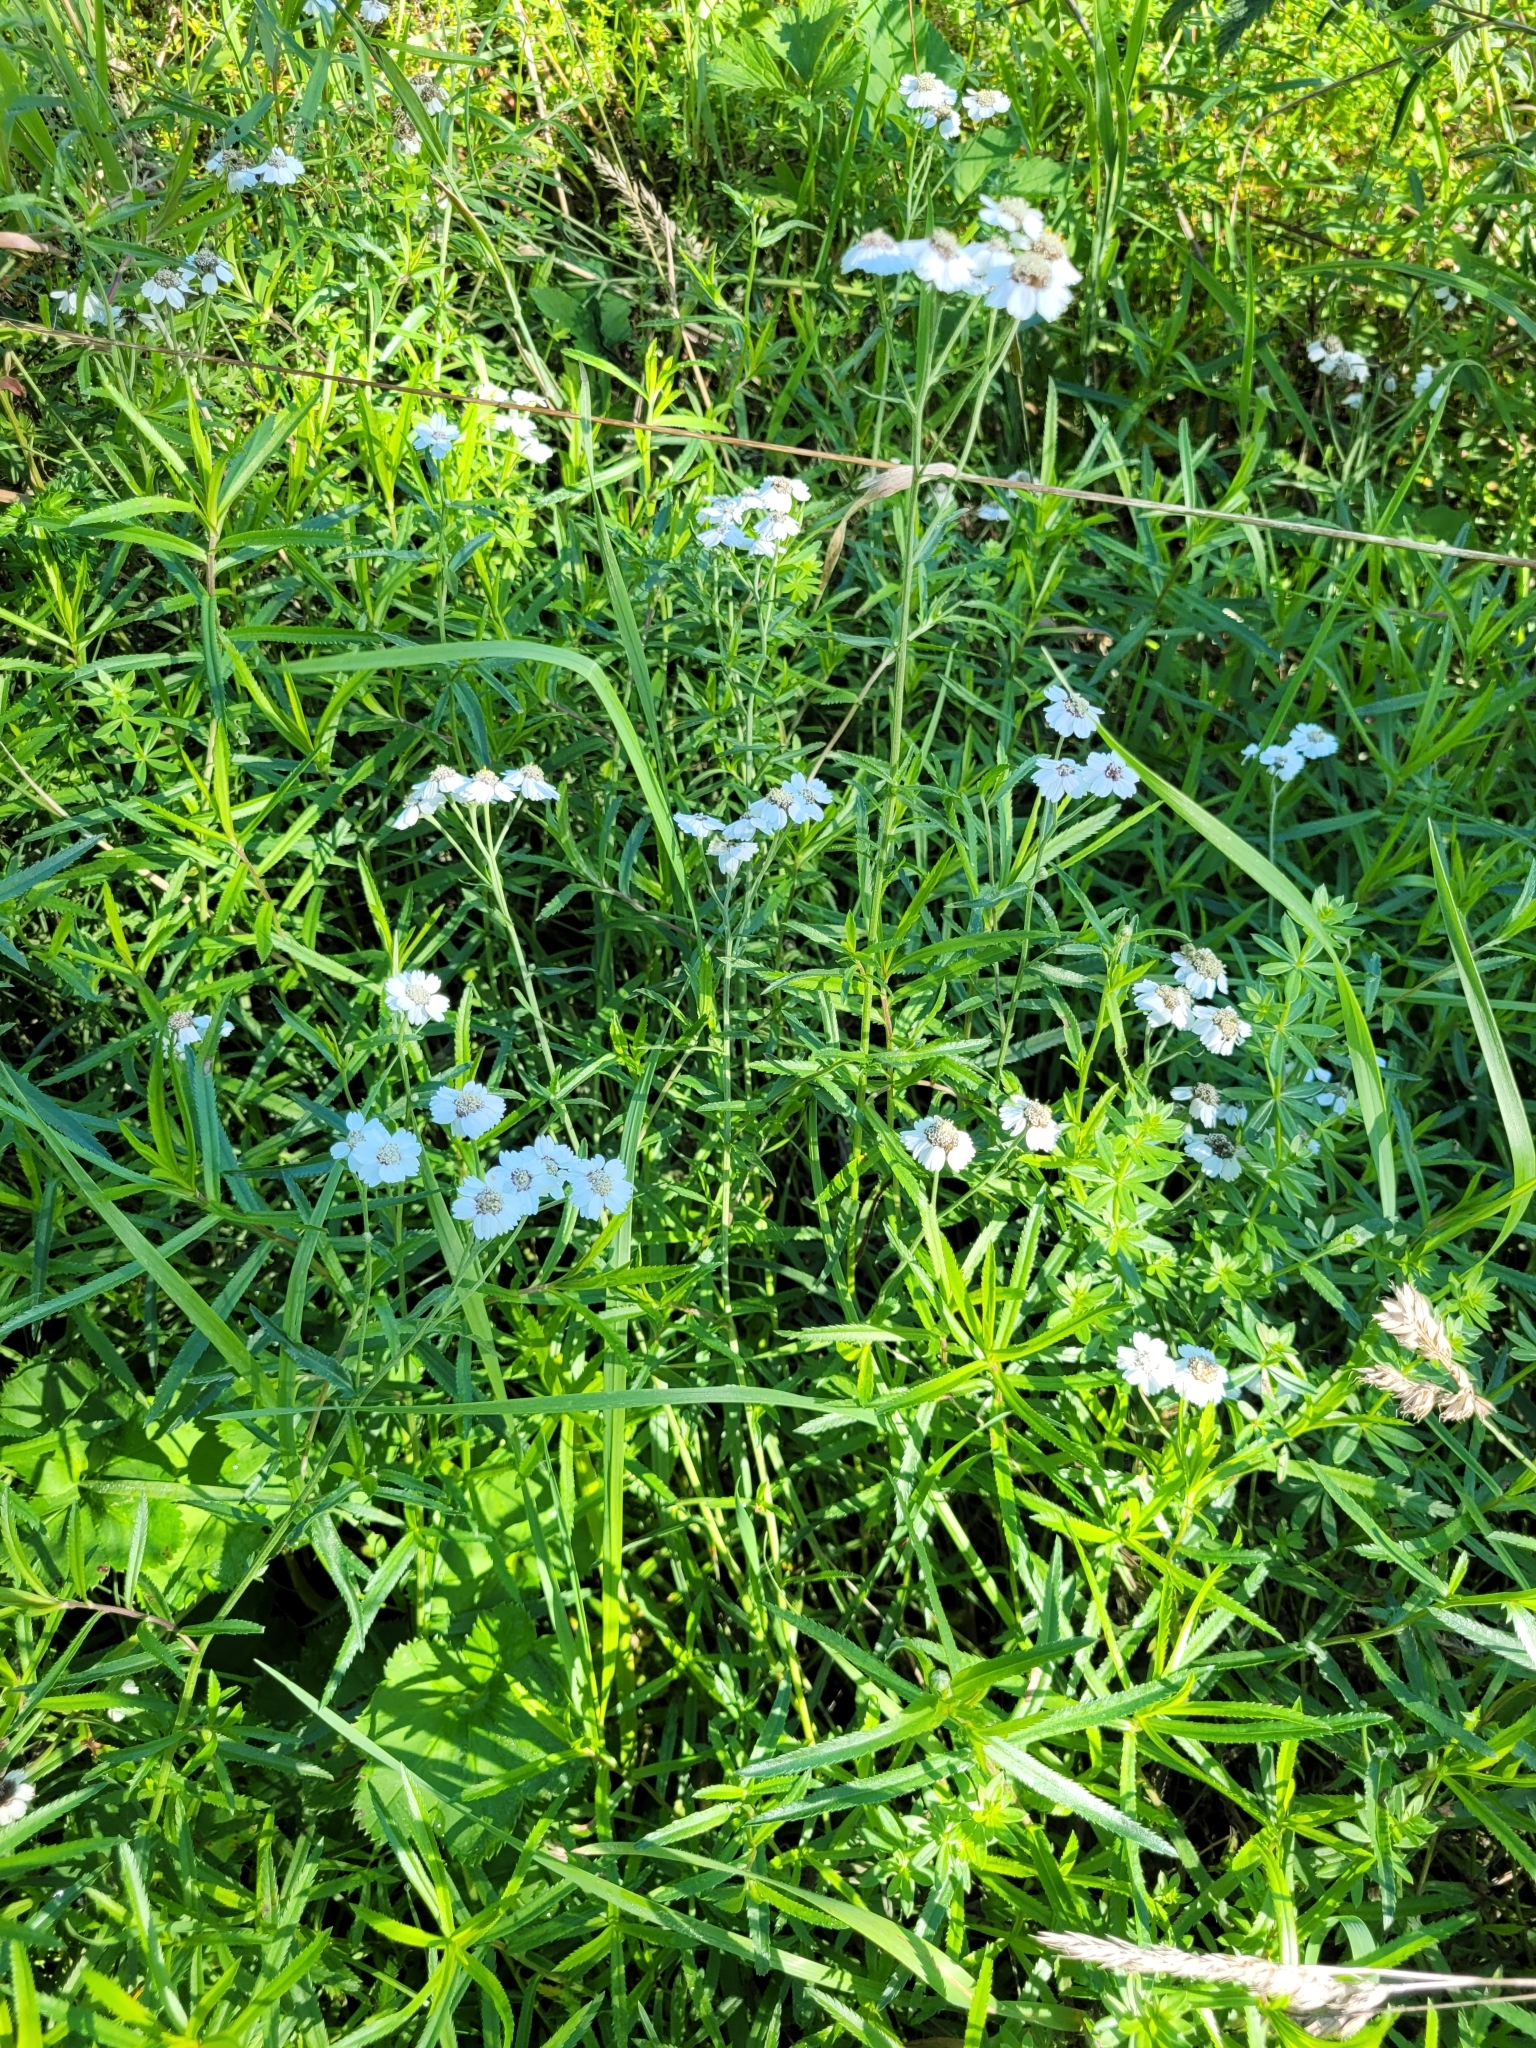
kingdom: Plantae
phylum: Tracheophyta
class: Magnoliopsida
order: Asterales
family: Asteraceae
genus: Achillea
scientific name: Achillea ptarmica
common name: Sneezeweed
